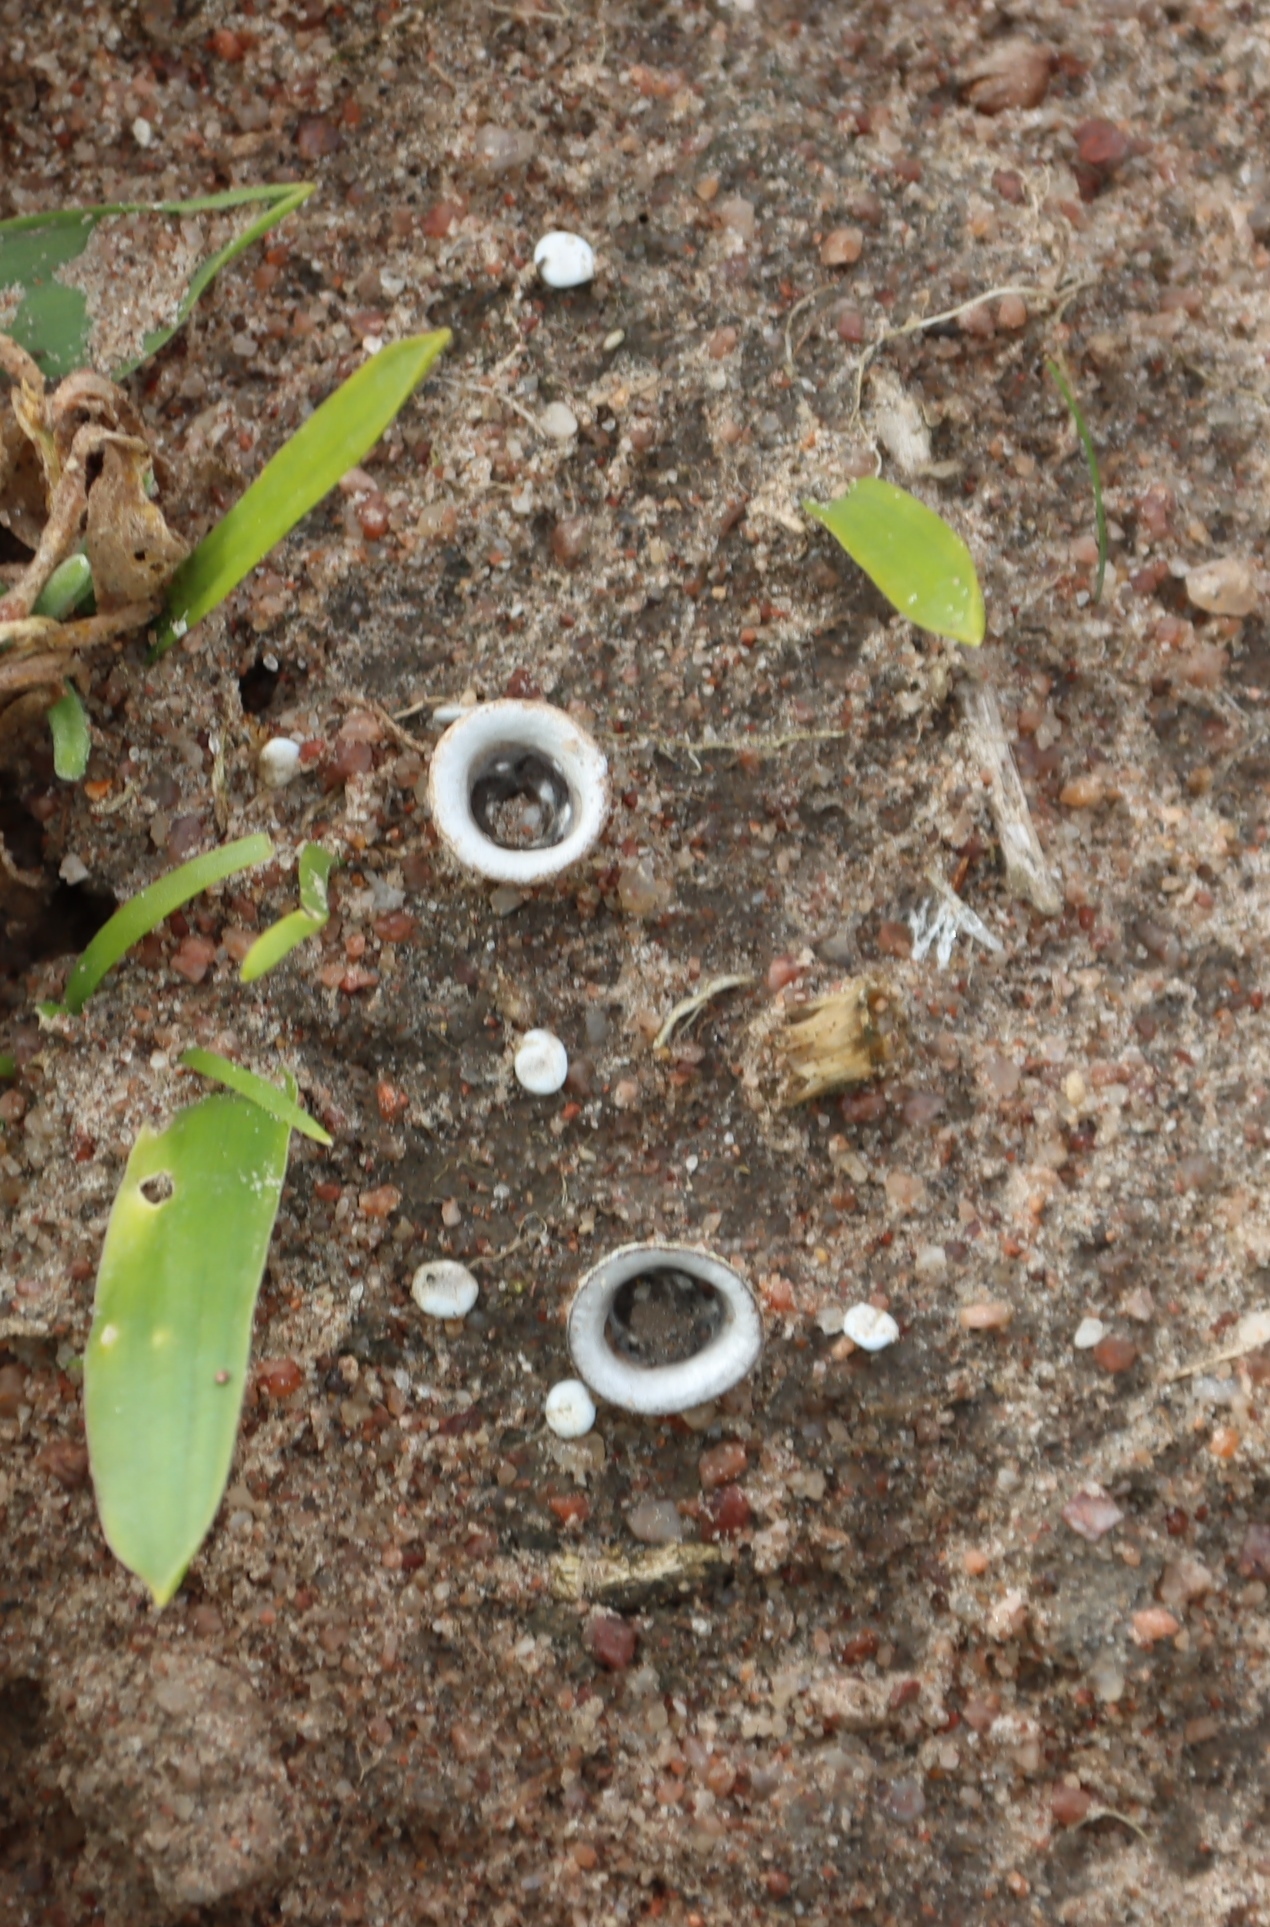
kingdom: Fungi
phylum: Basidiomycota
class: Agaricomycetes
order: Agaricales
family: Agaricaceae
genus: Cyathus
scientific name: Cyathus olla
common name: Field bird's nest
